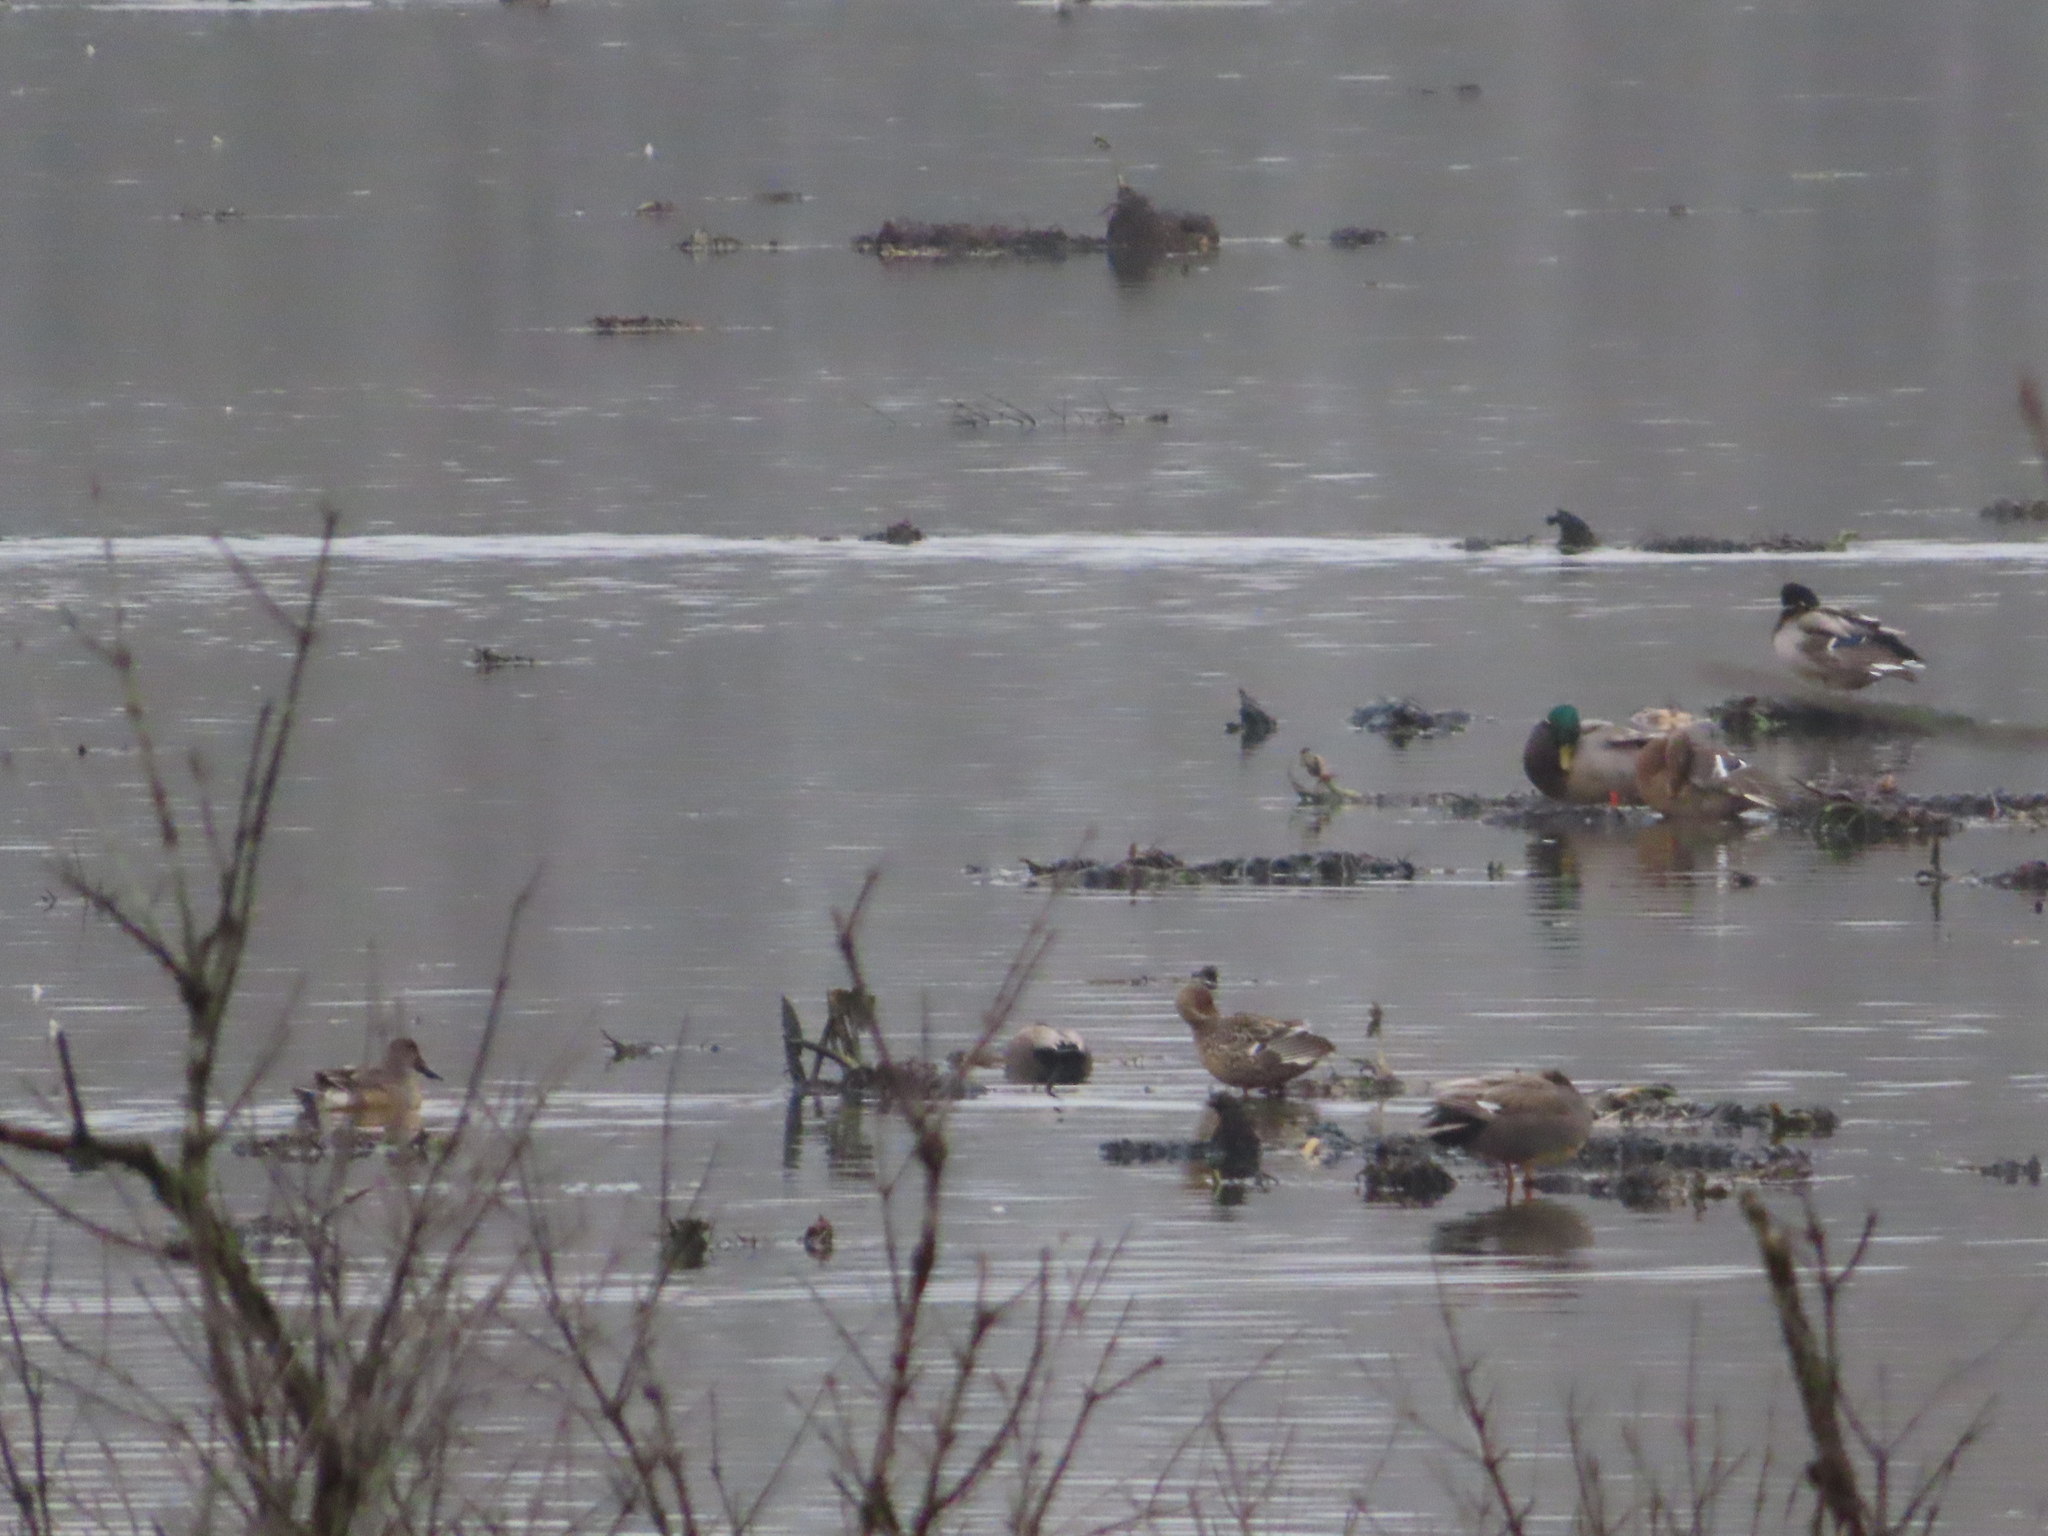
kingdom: Animalia
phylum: Chordata
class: Aves
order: Anseriformes
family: Anatidae
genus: Anas
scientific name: Anas platyrhynchos
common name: Mallard
